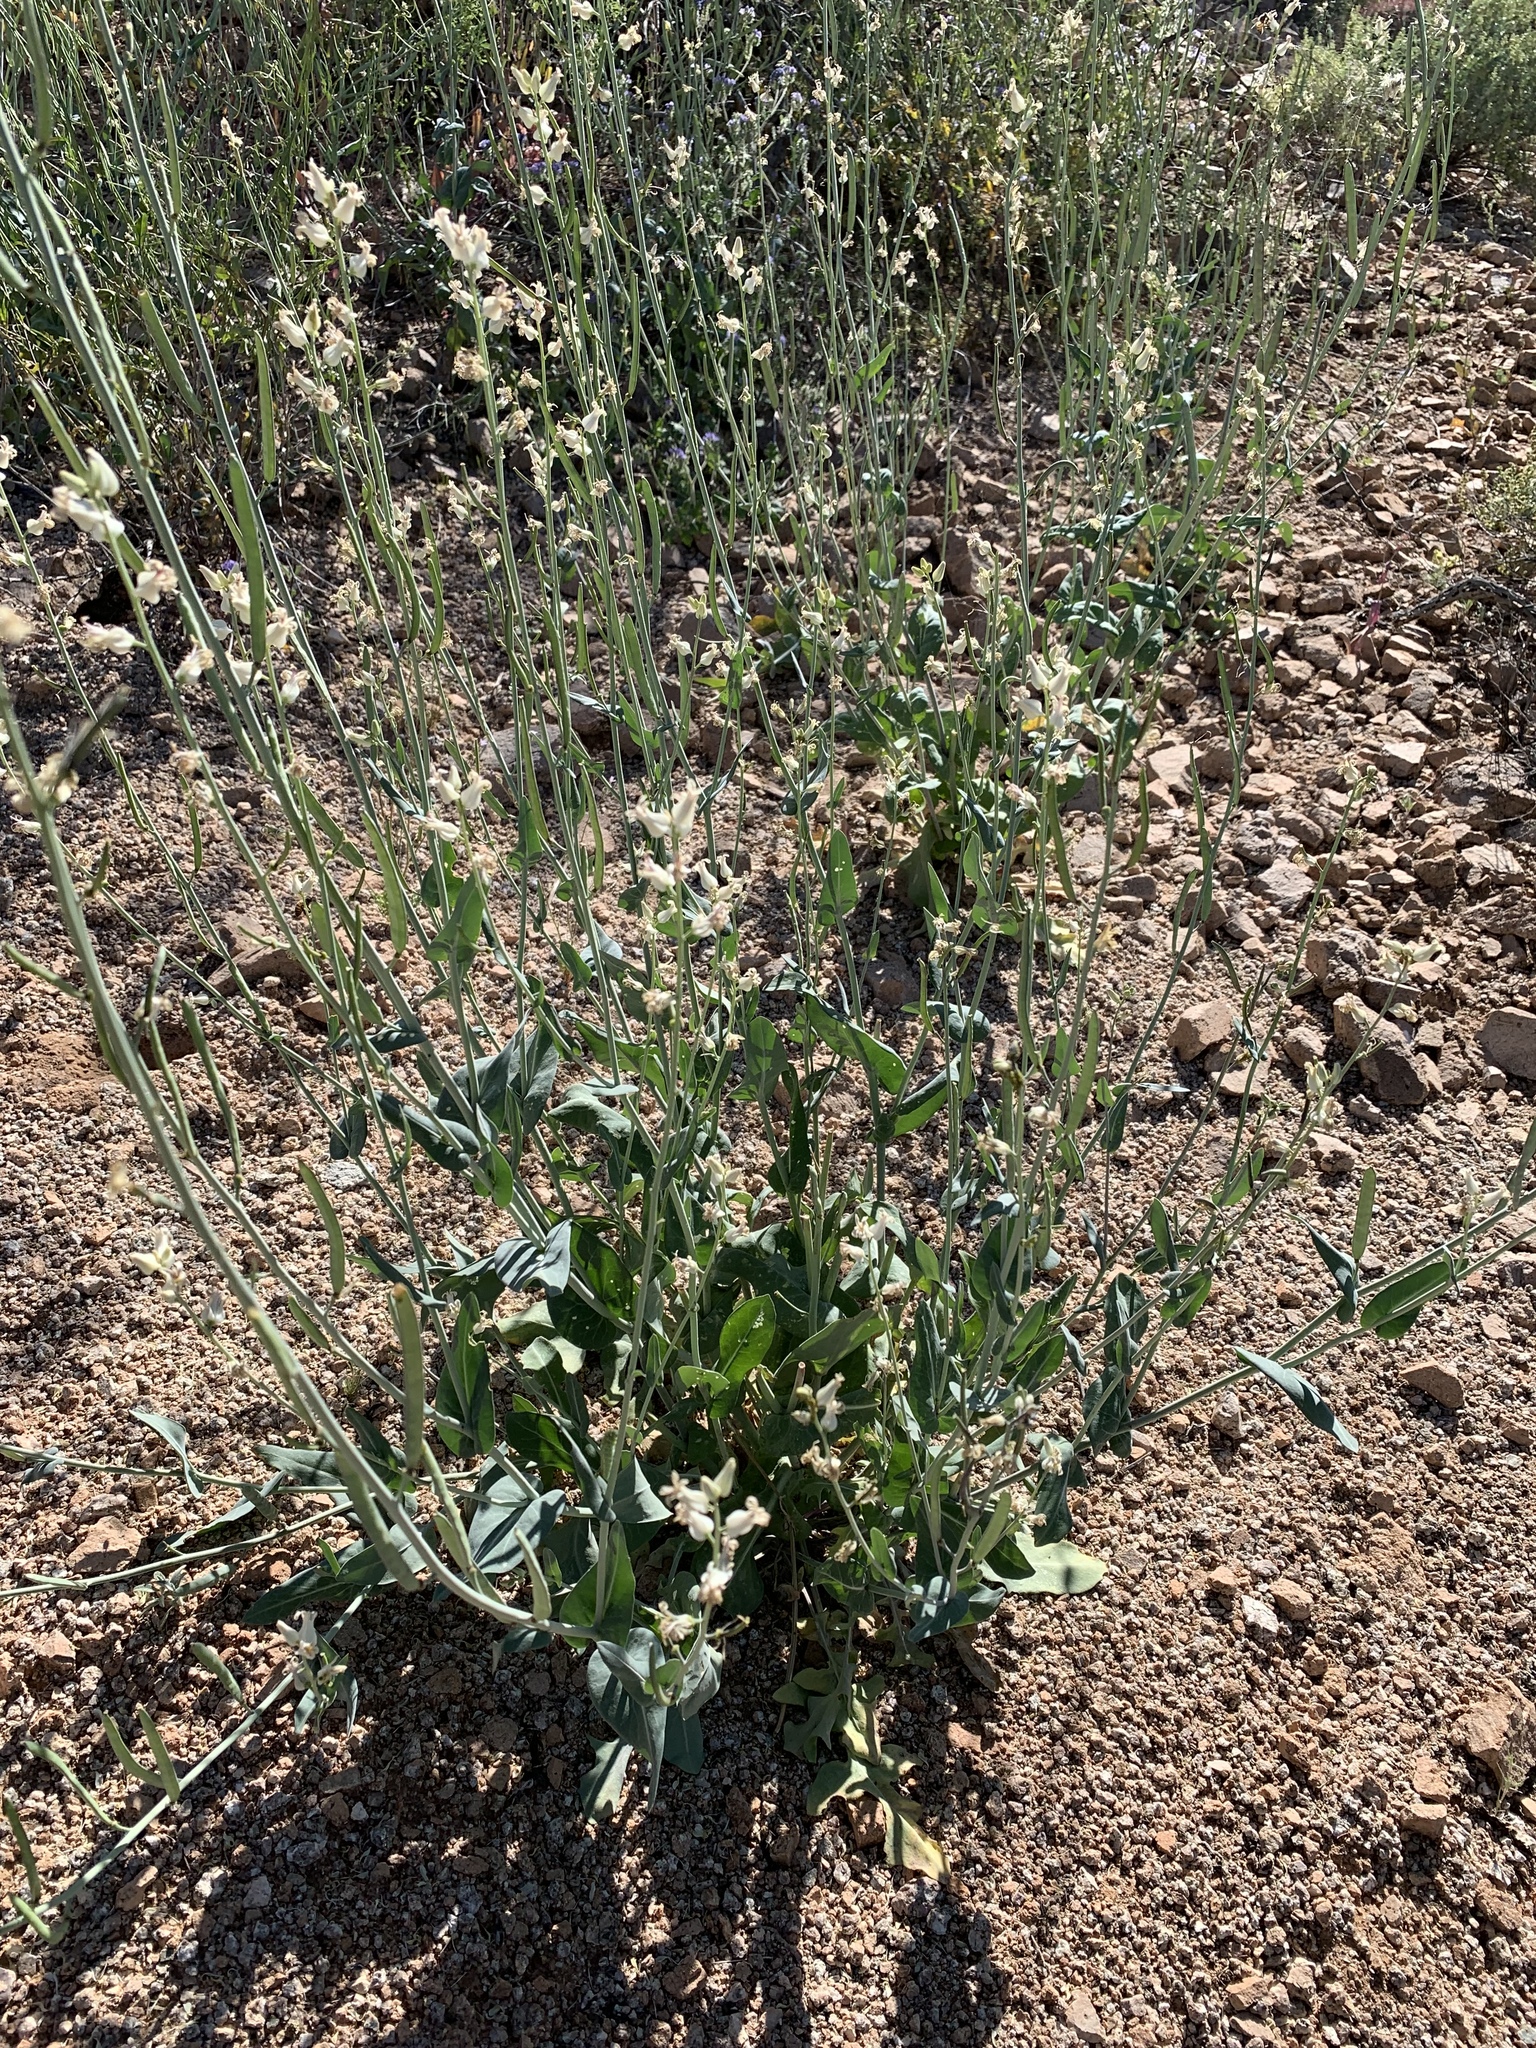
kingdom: Plantae
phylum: Tracheophyta
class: Magnoliopsida
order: Brassicales
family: Brassicaceae
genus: Streptanthus
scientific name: Streptanthus carinatus
